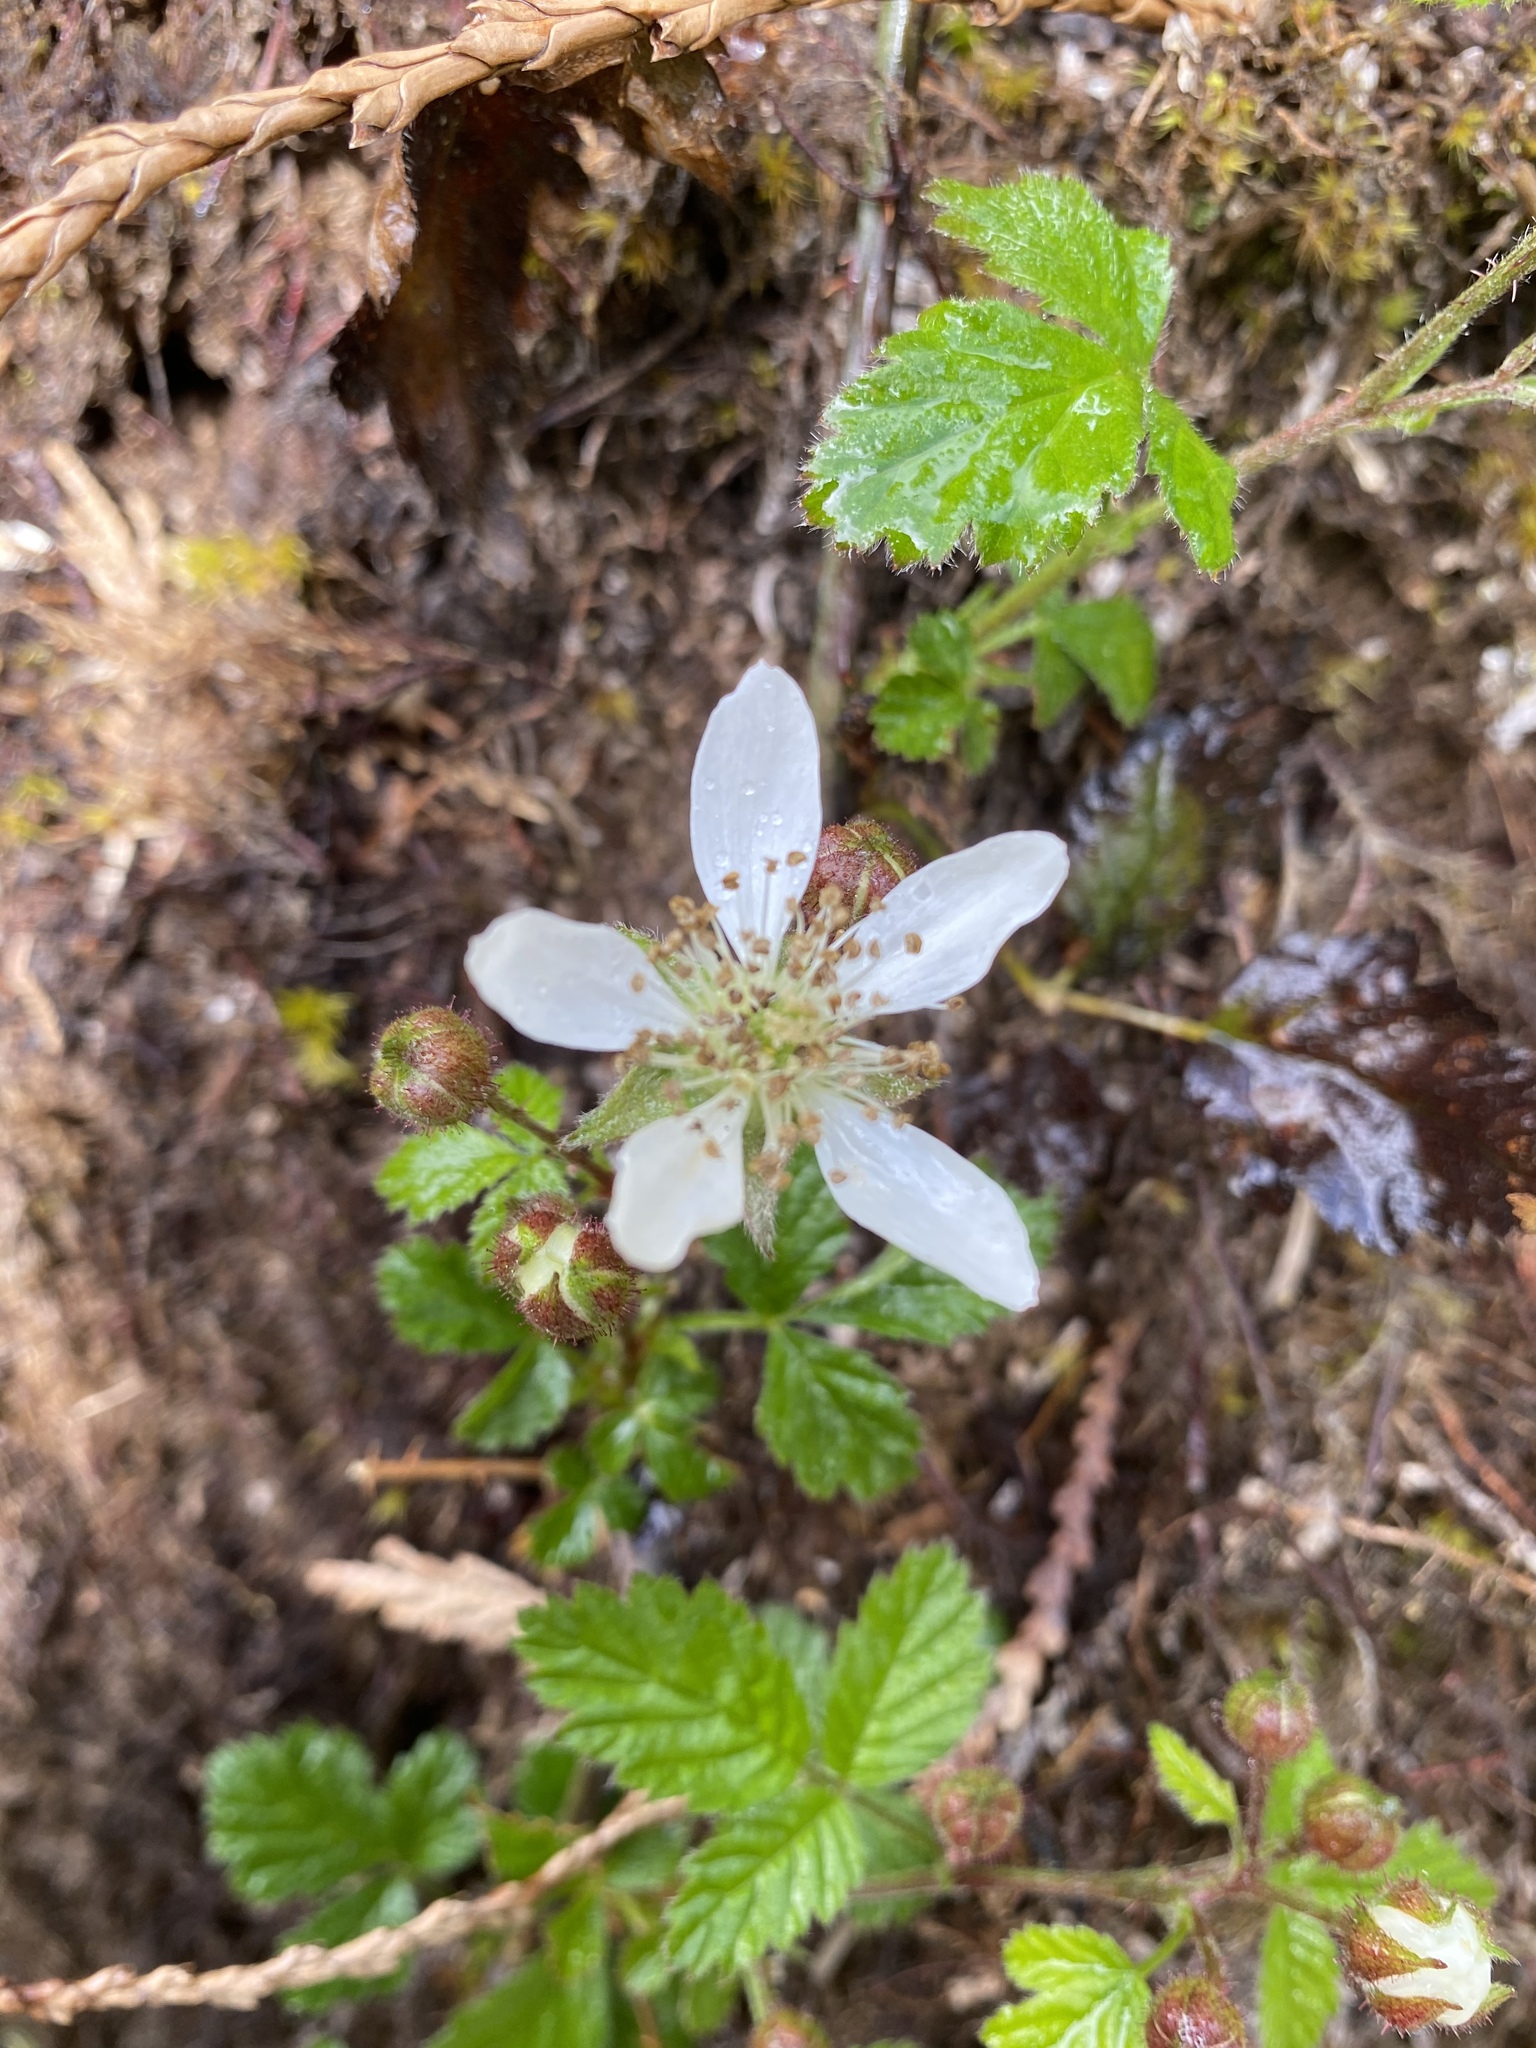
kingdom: Plantae
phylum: Tracheophyta
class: Magnoliopsida
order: Rosales
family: Rosaceae
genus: Rubus
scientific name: Rubus ursinus
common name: Pacific blackberry
